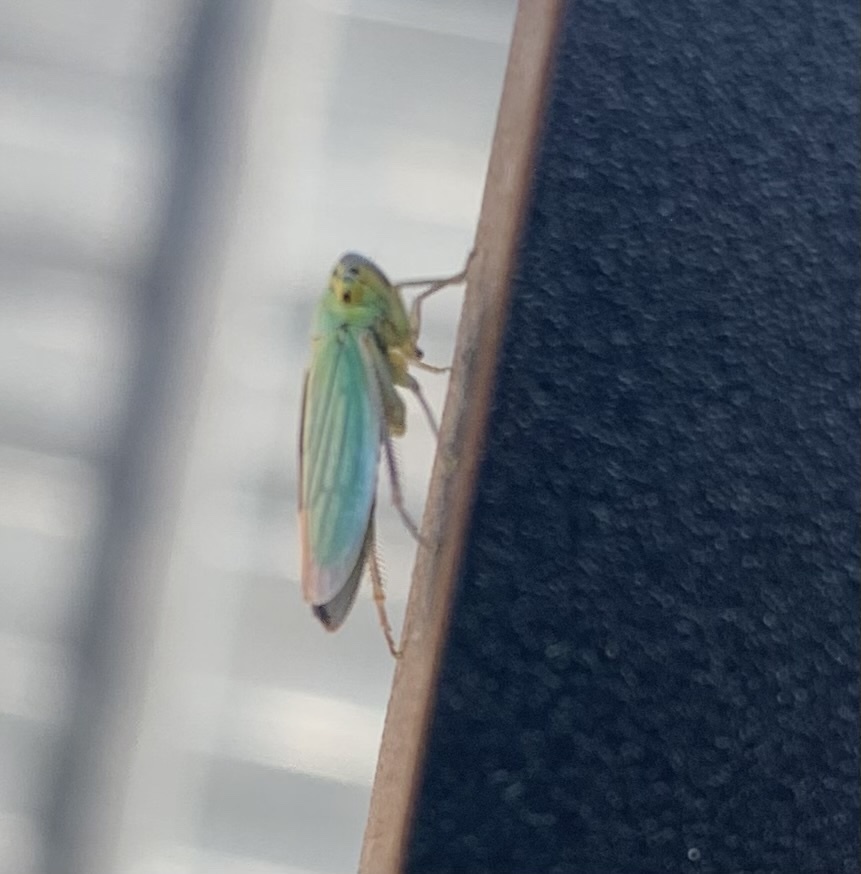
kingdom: Animalia
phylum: Arthropoda
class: Insecta
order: Hemiptera
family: Cicadellidae
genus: Cicadella
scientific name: Cicadella viridis
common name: Leafhopper
